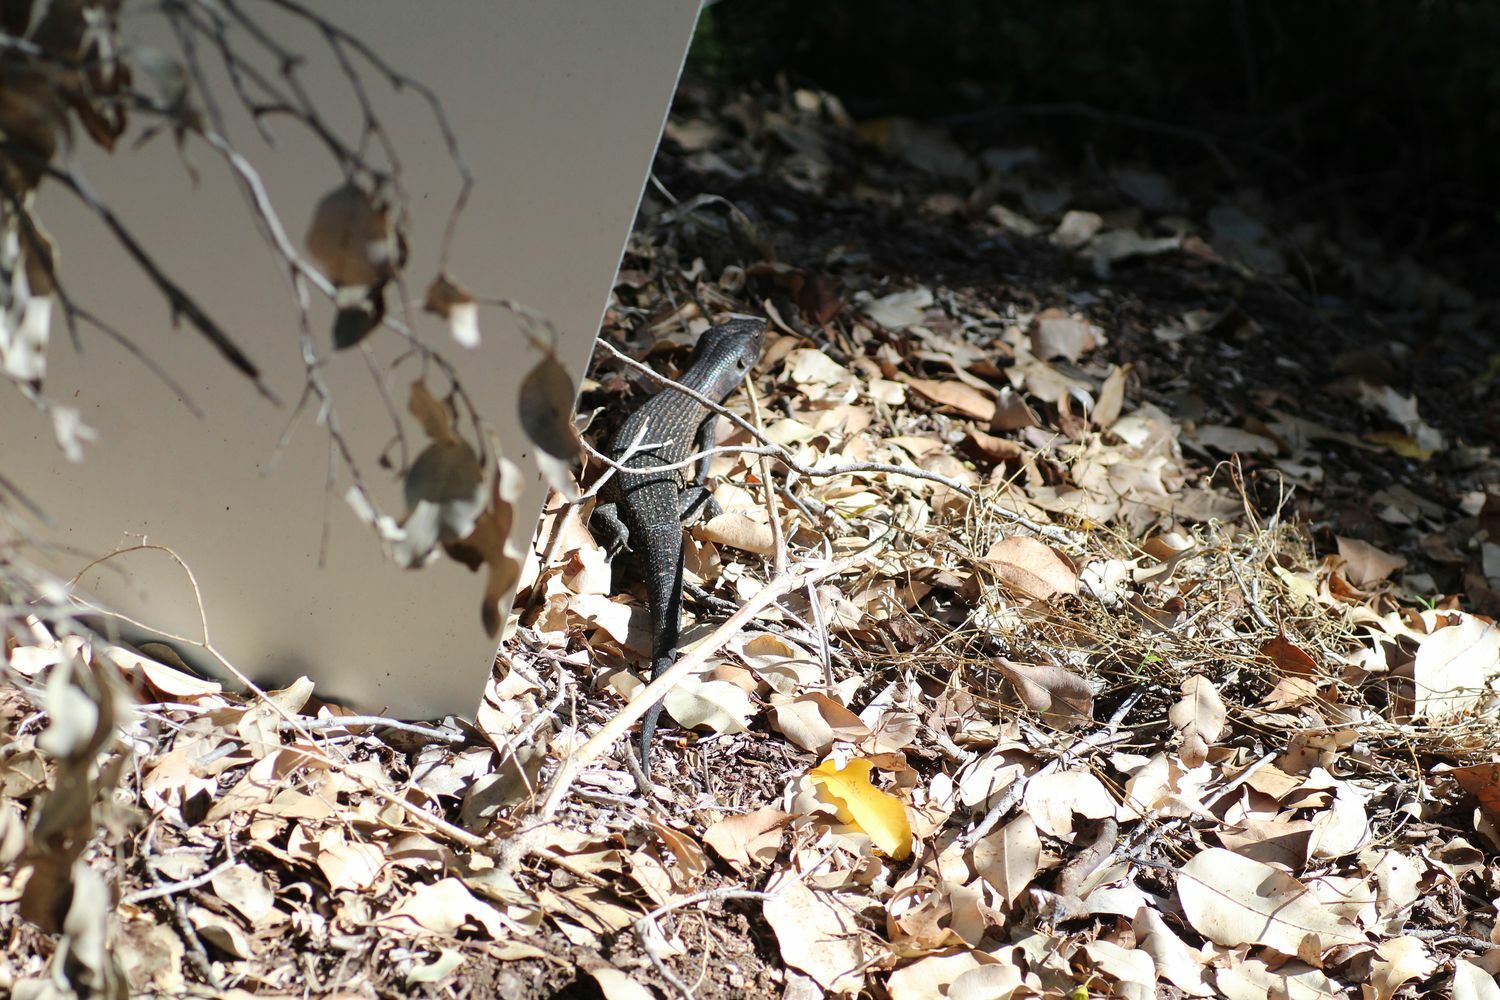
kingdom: Animalia
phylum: Chordata
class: Squamata
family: Scincidae
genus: Egernia
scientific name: Egernia kingii
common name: King's skink
